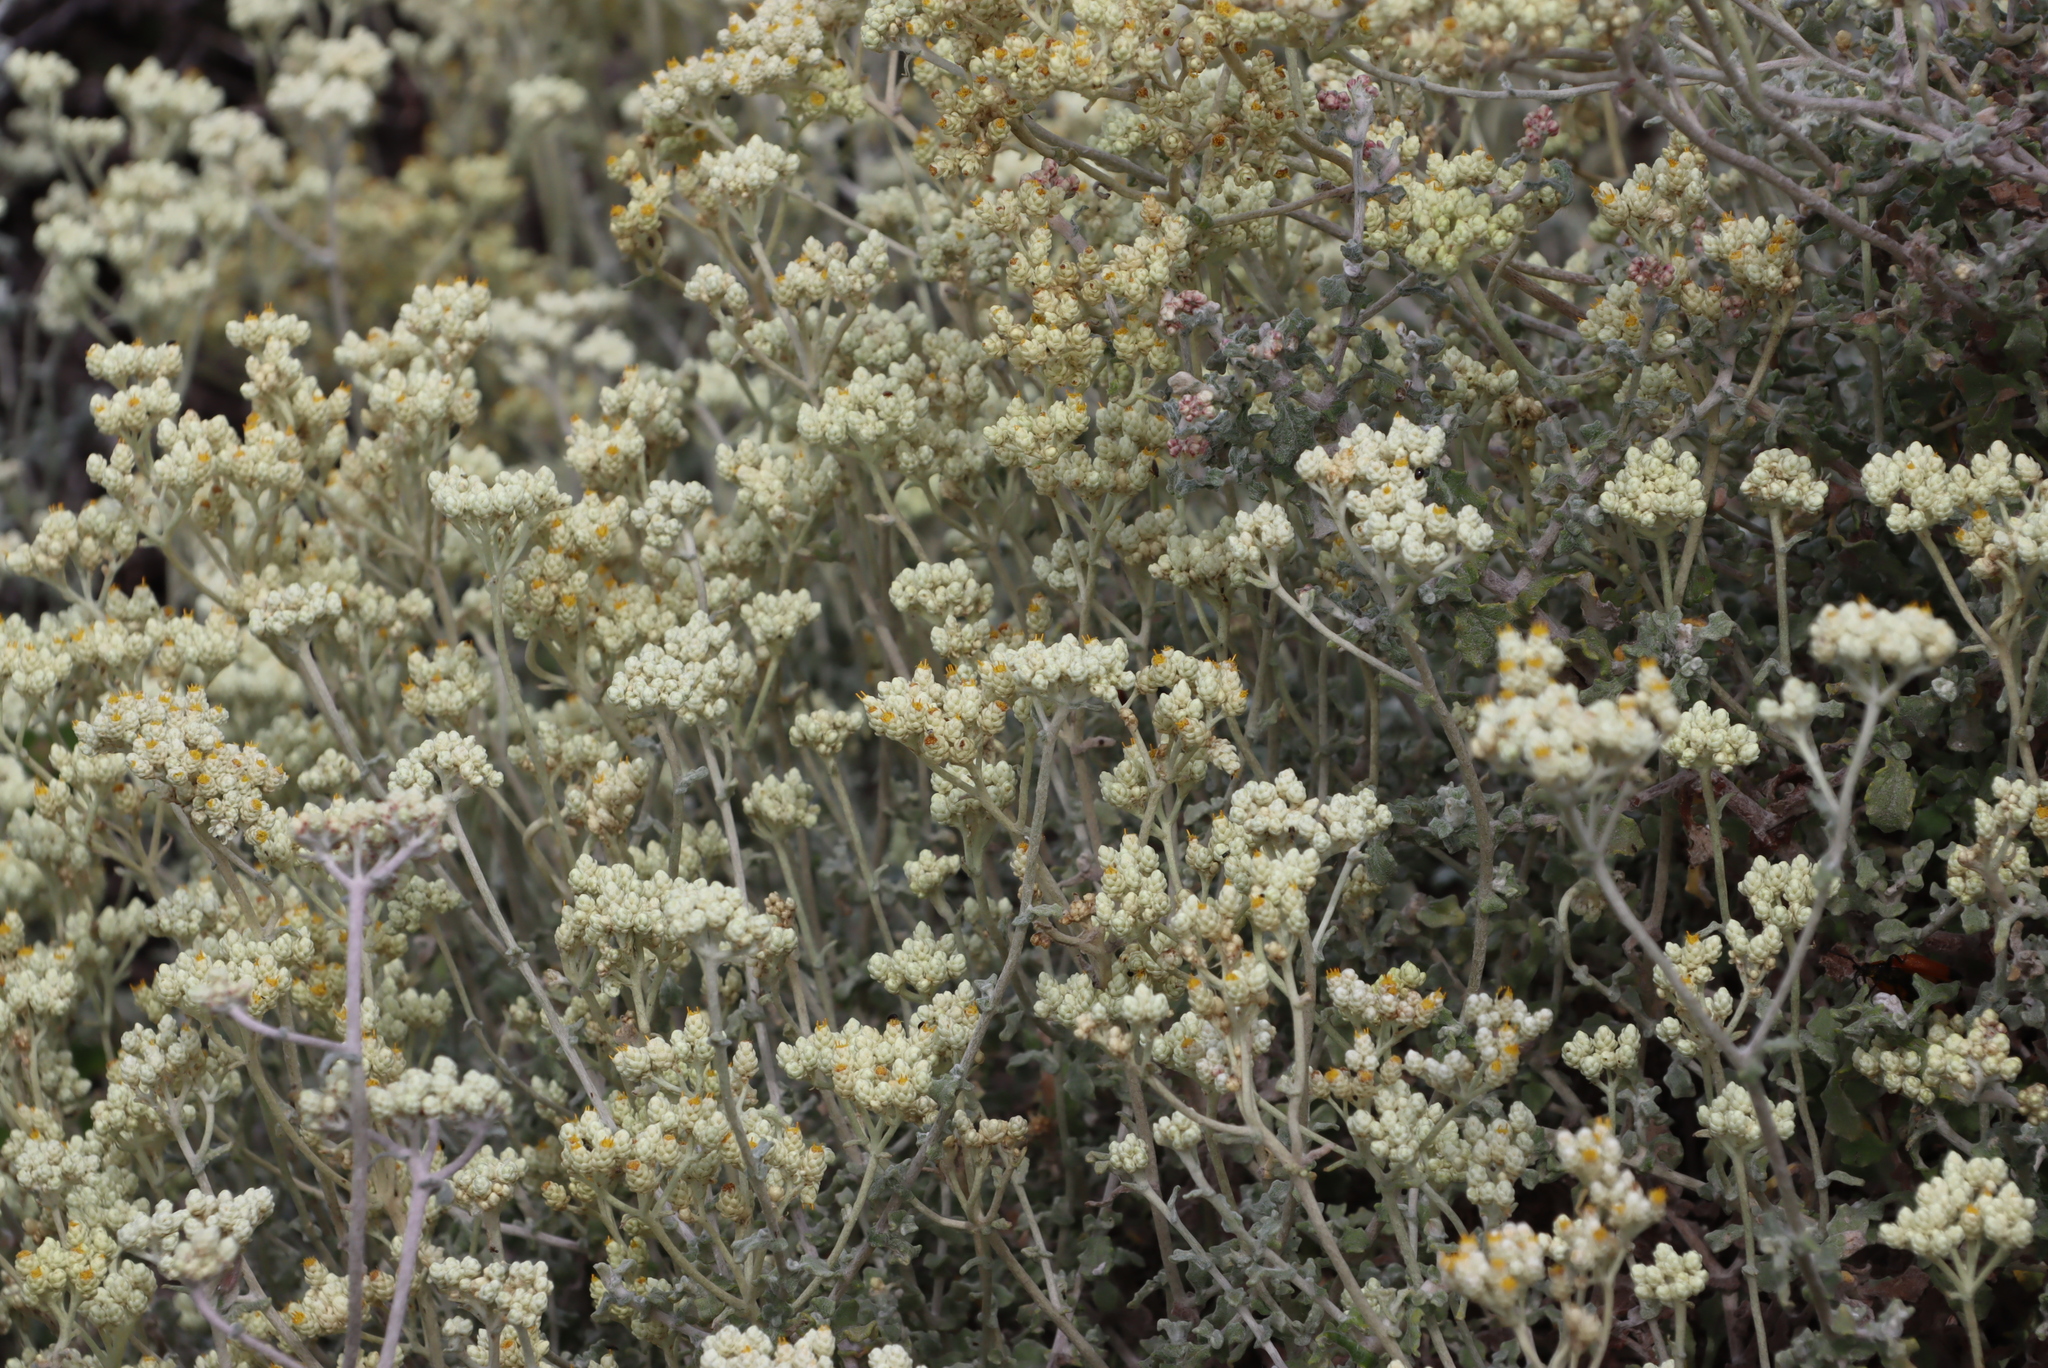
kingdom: Plantae
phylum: Tracheophyta
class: Magnoliopsida
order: Asterales
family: Asteraceae
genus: Helichrysum
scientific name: Helichrysum patulum
